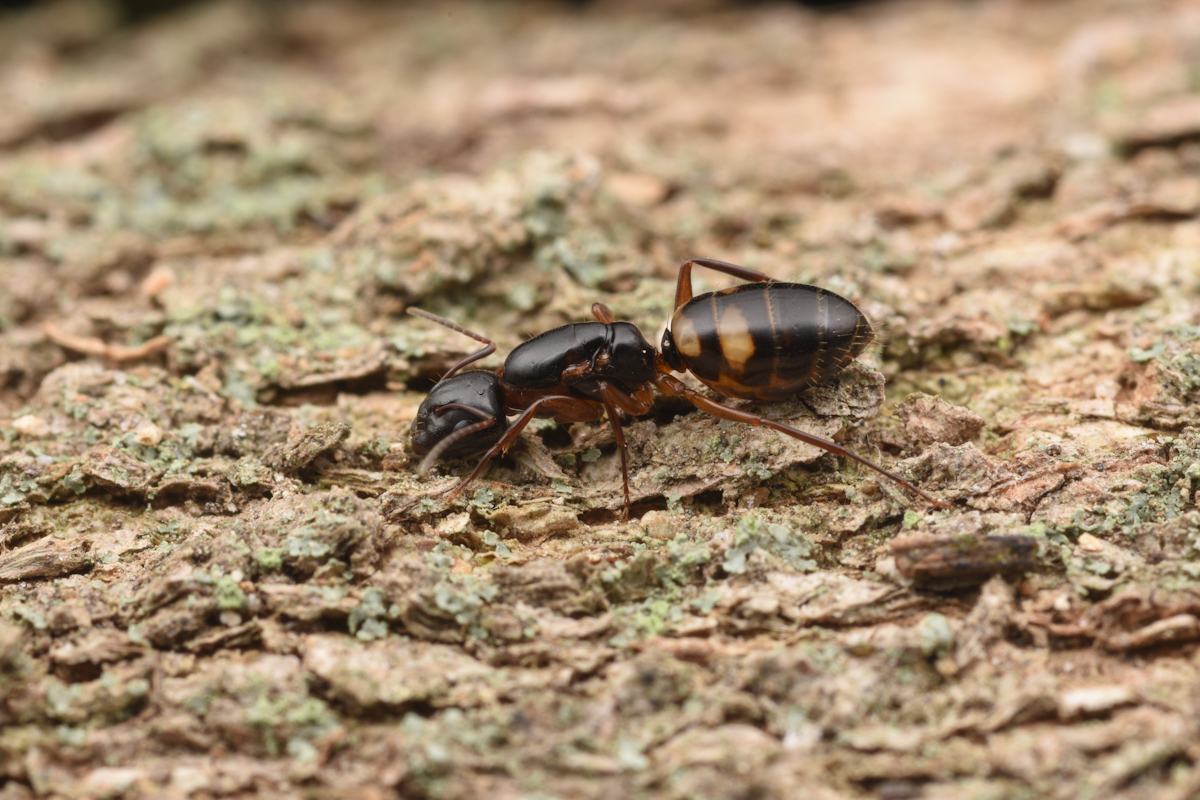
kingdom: Animalia
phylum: Arthropoda
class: Insecta
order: Hymenoptera
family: Formicidae
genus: Camponotus
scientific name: Camponotus quadrinotatus
